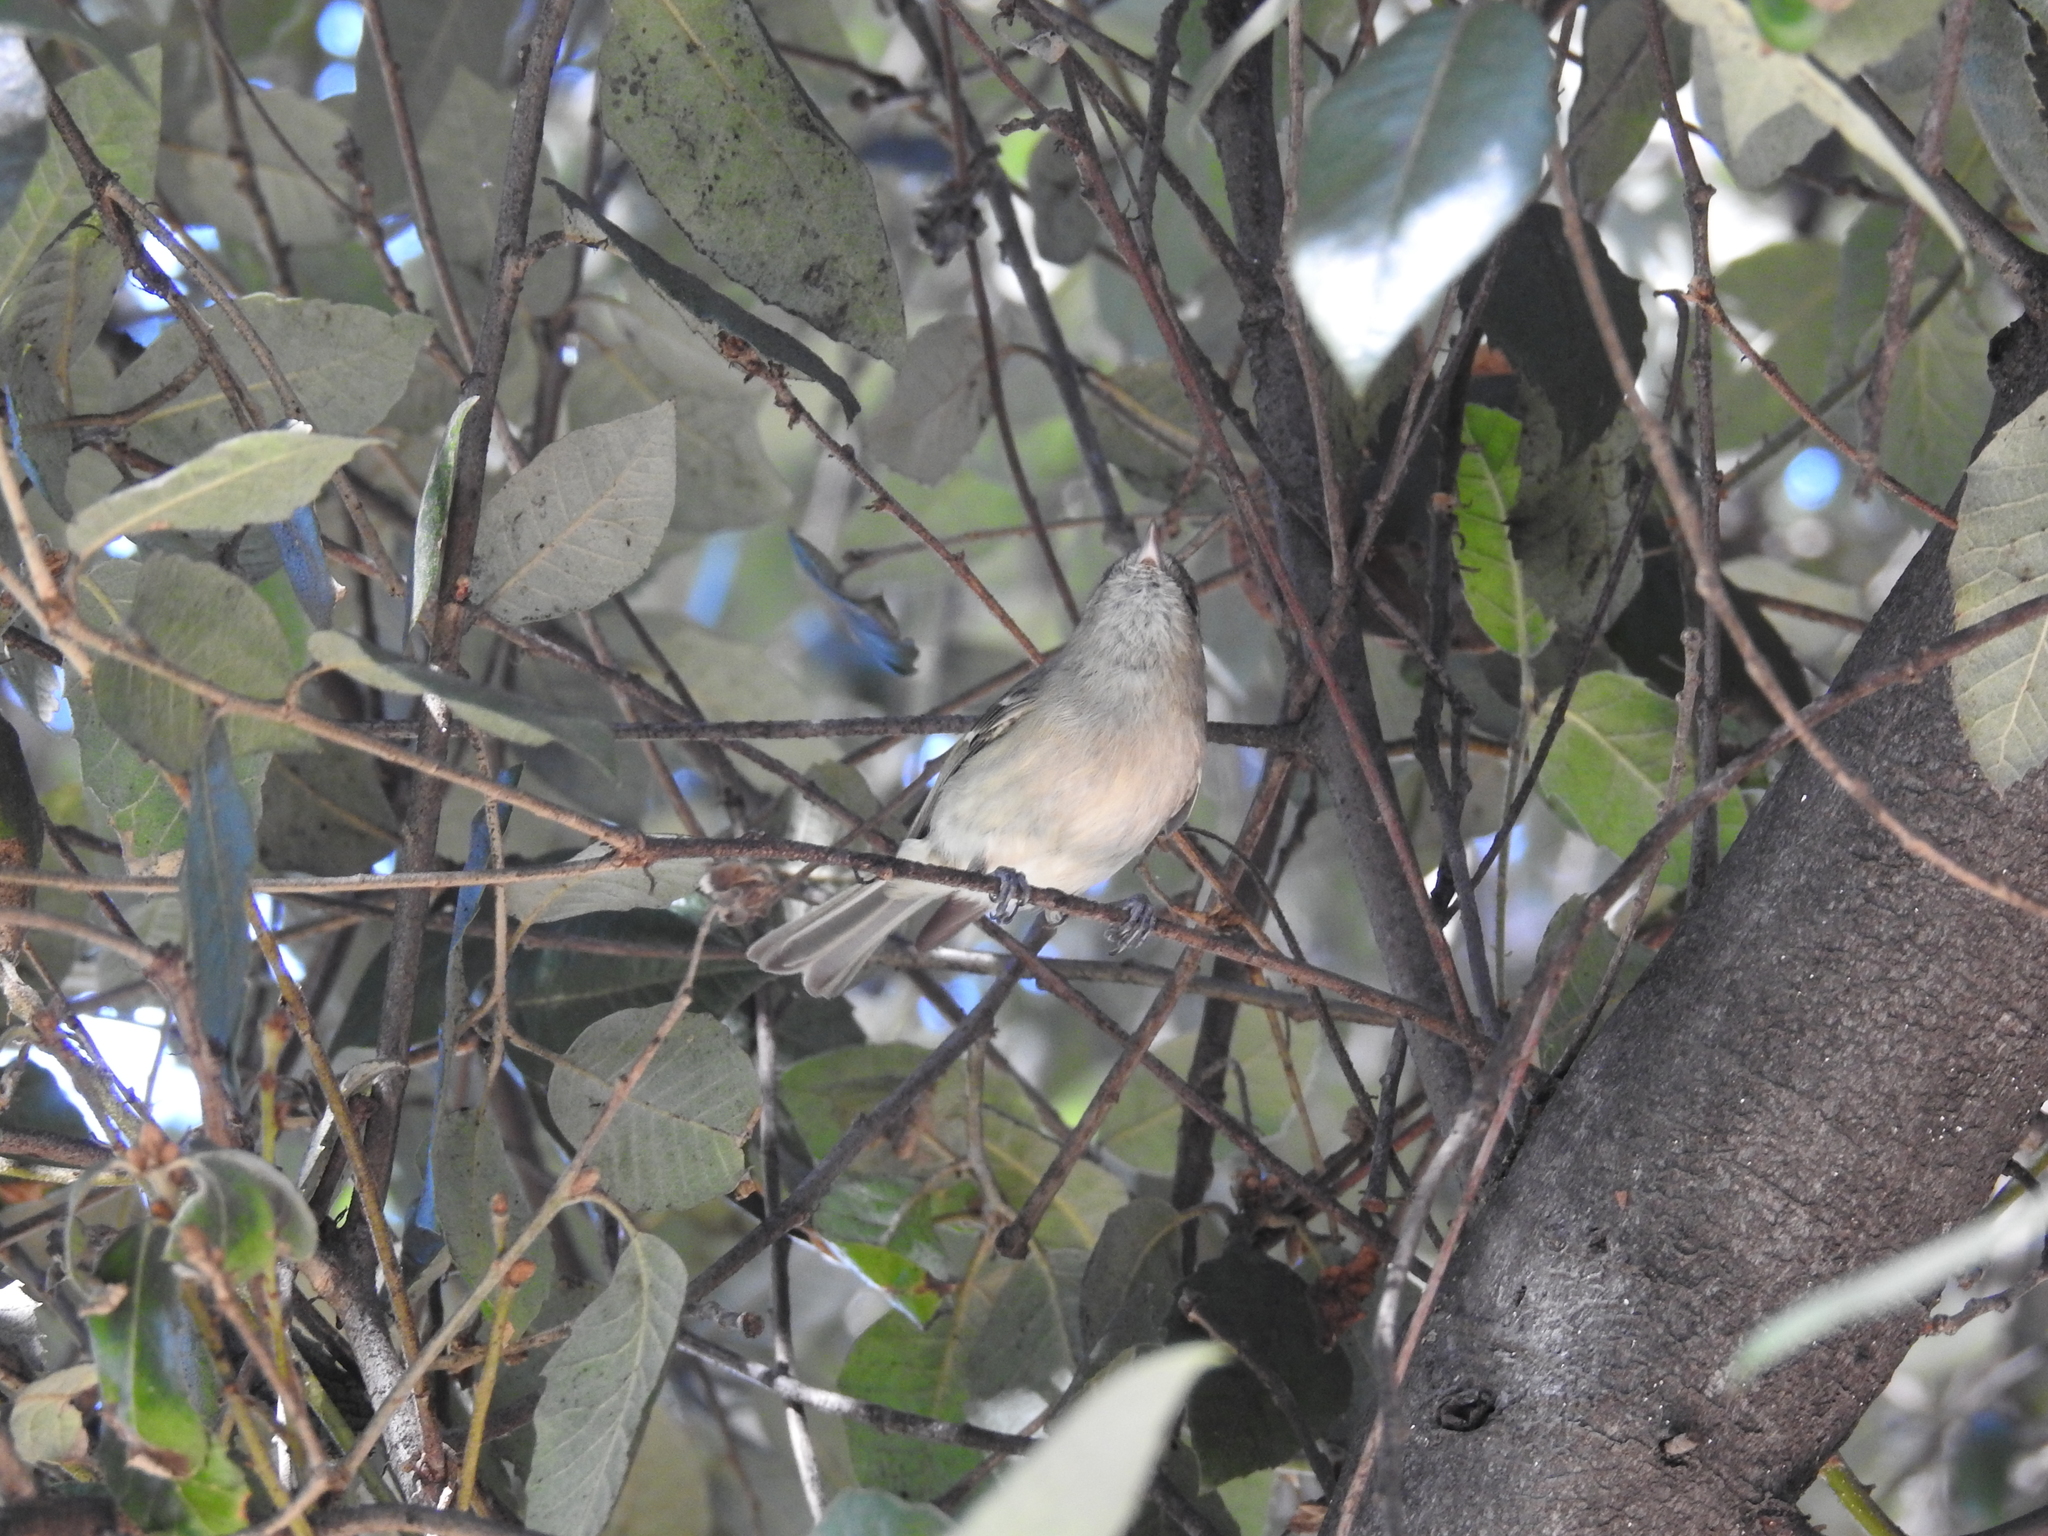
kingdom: Animalia
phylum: Chordata
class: Aves
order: Passeriformes
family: Vireonidae
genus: Vireo
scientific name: Vireo huttoni
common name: Hutton's vireo
